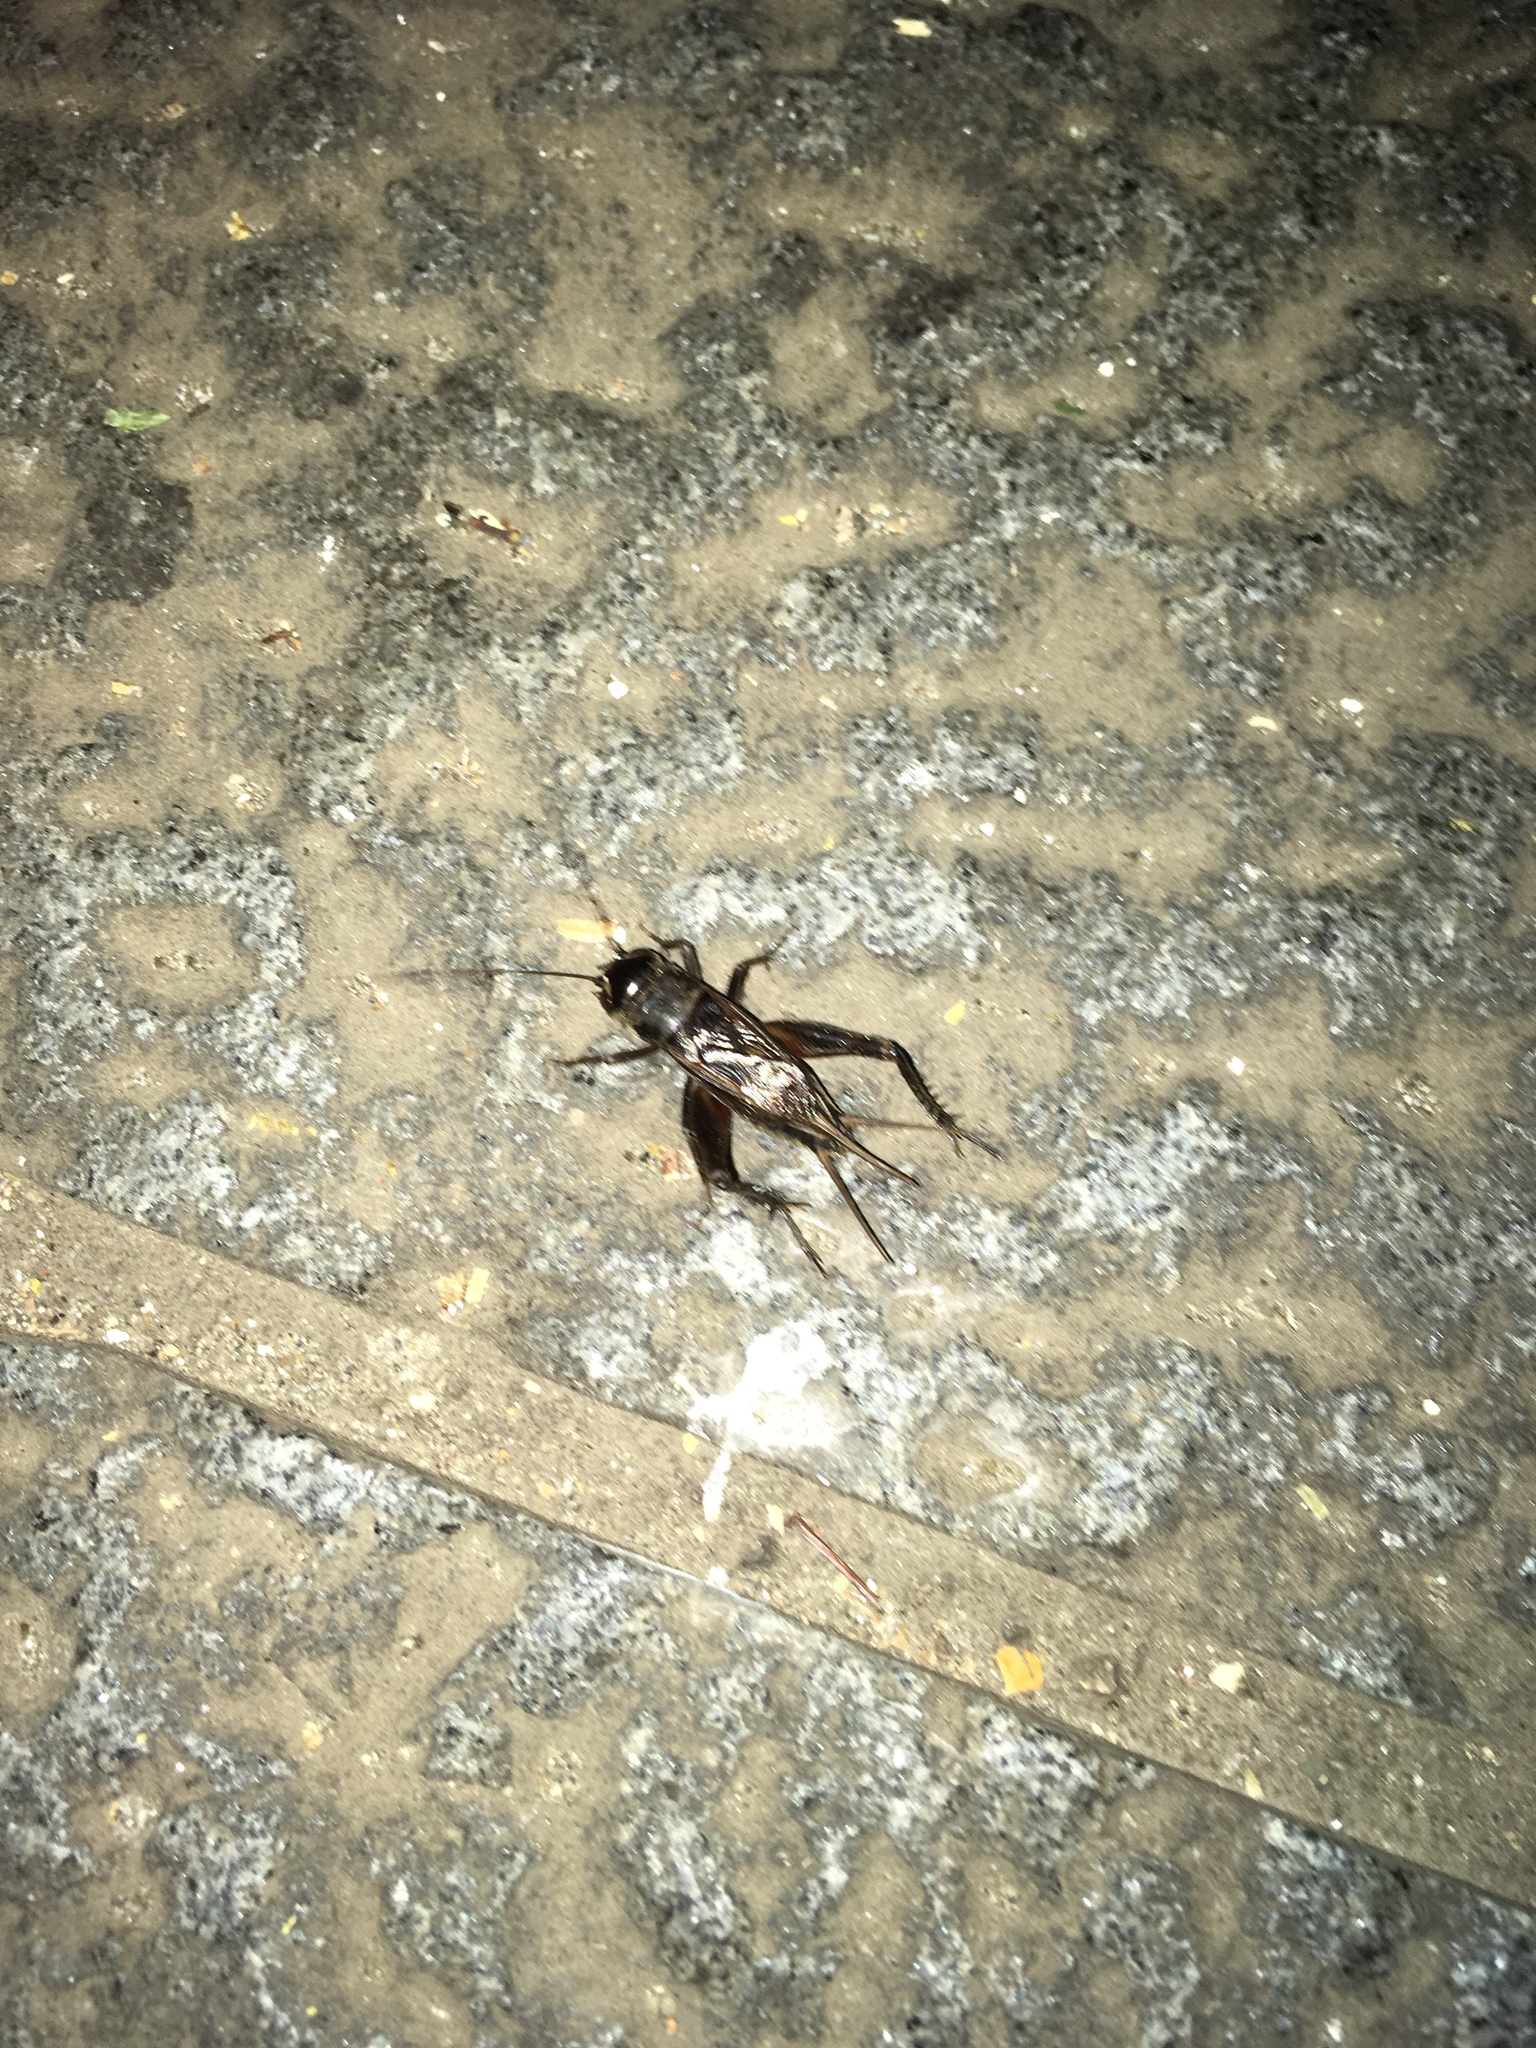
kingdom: Animalia
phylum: Arthropoda
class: Insecta
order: Orthoptera
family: Gryllidae
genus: Teleogryllus
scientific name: Teleogryllus emma
